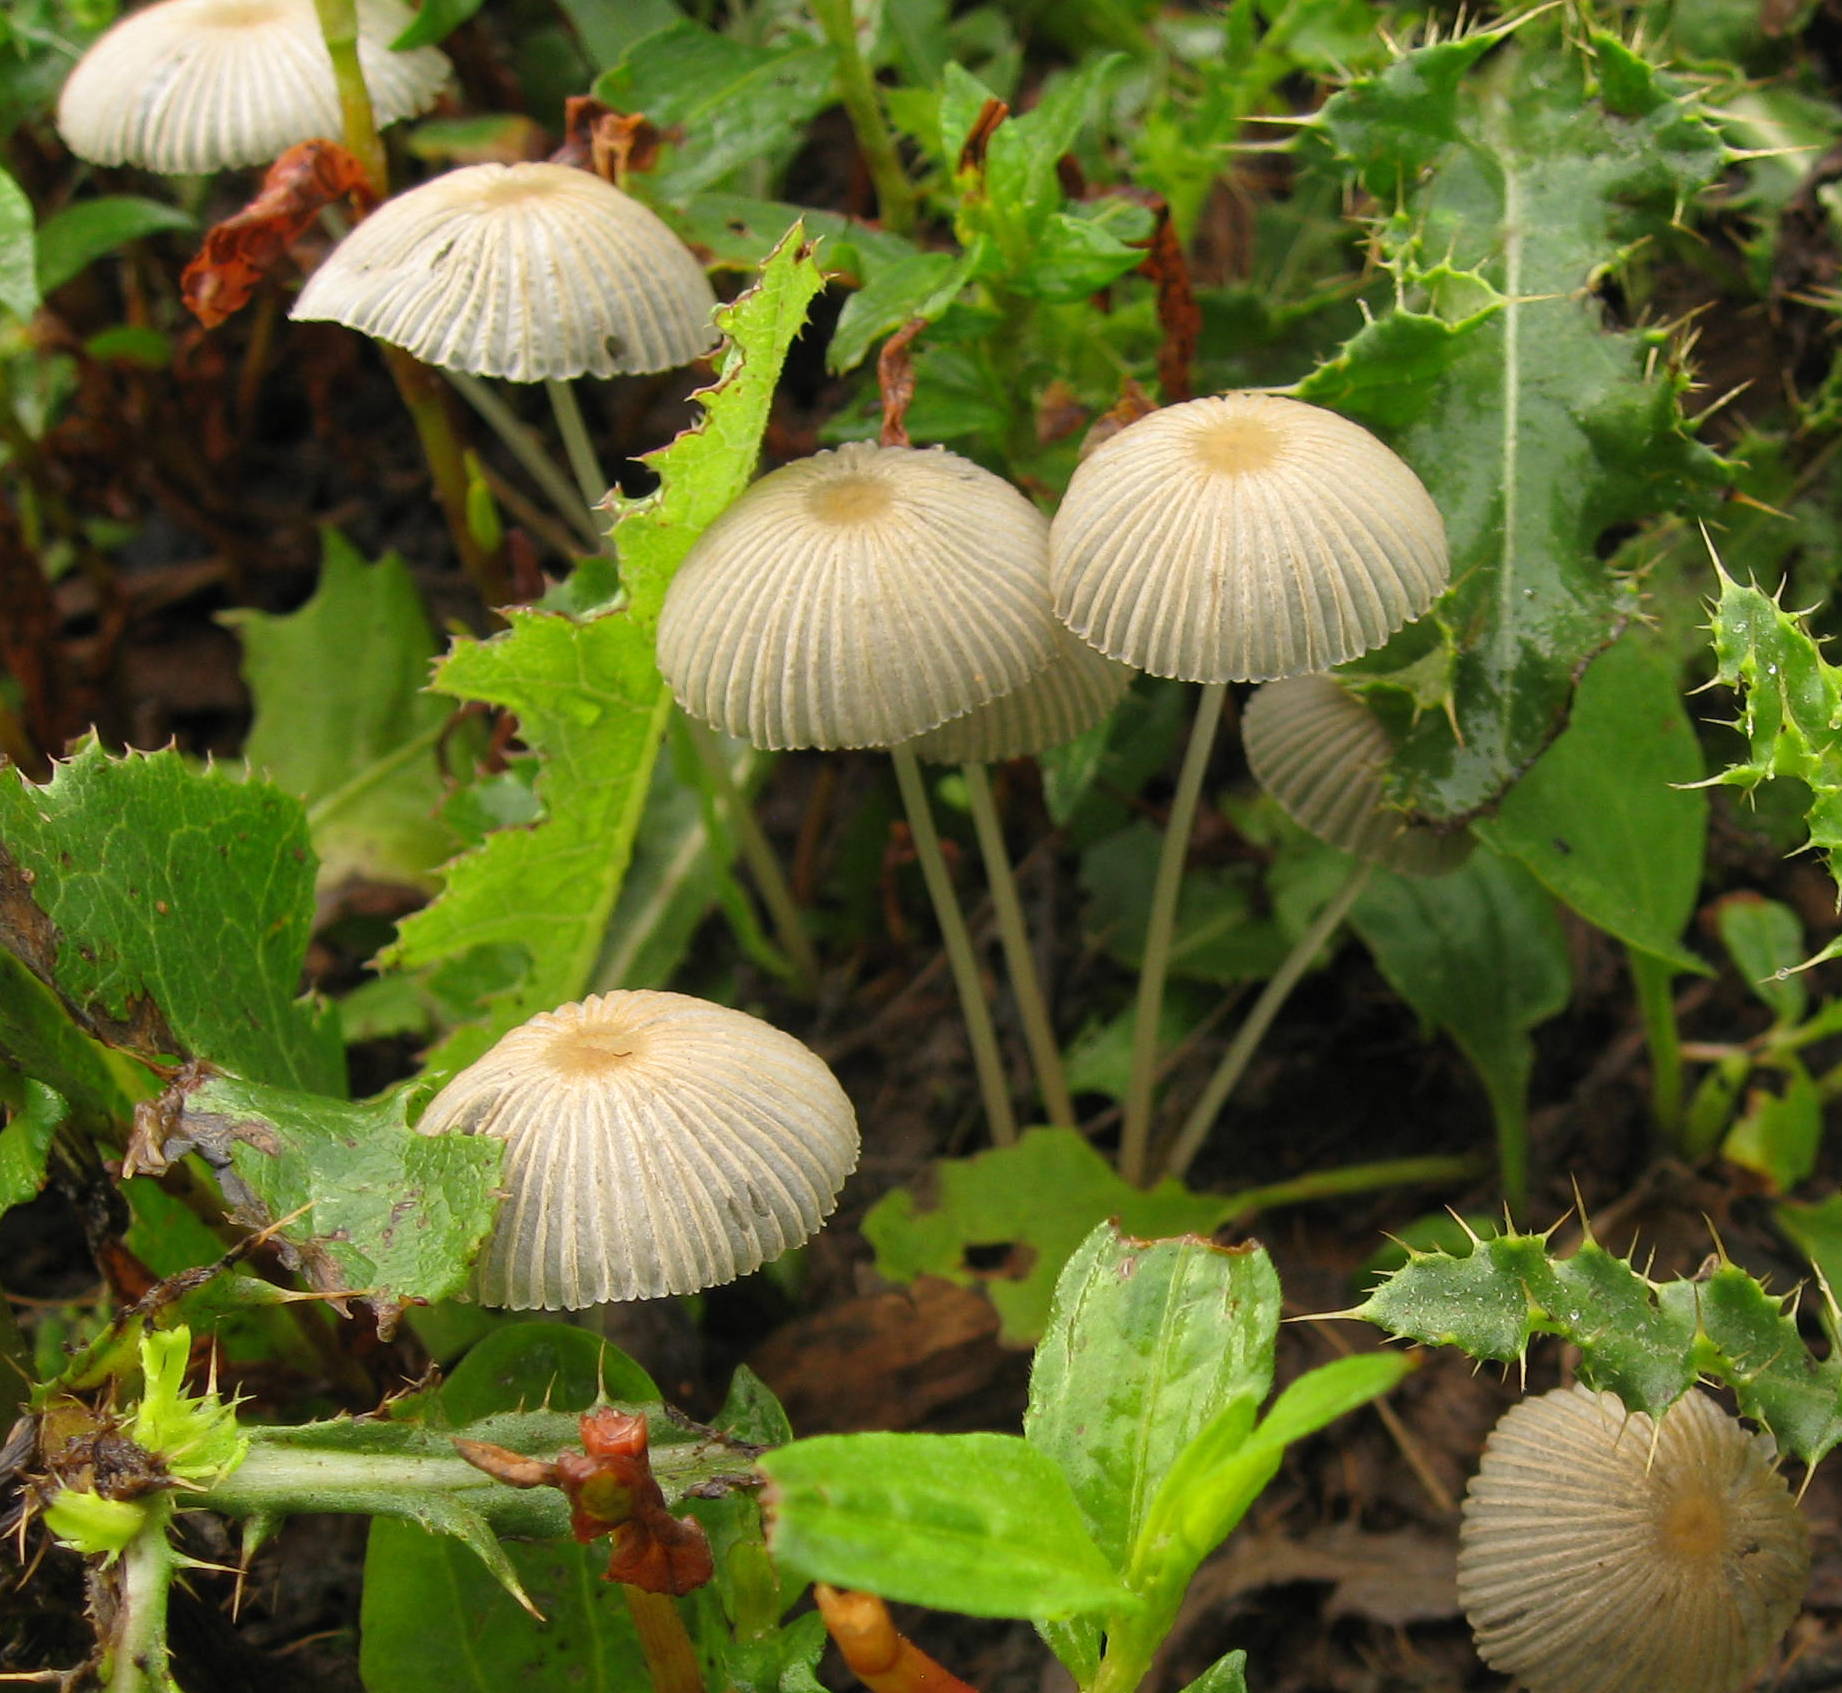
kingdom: Fungi
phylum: Basidiomycota
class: Agaricomycetes
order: Agaricales
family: Psathyrellaceae
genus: Parasola
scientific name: Parasola plicatilis
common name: Pleated inkcap
